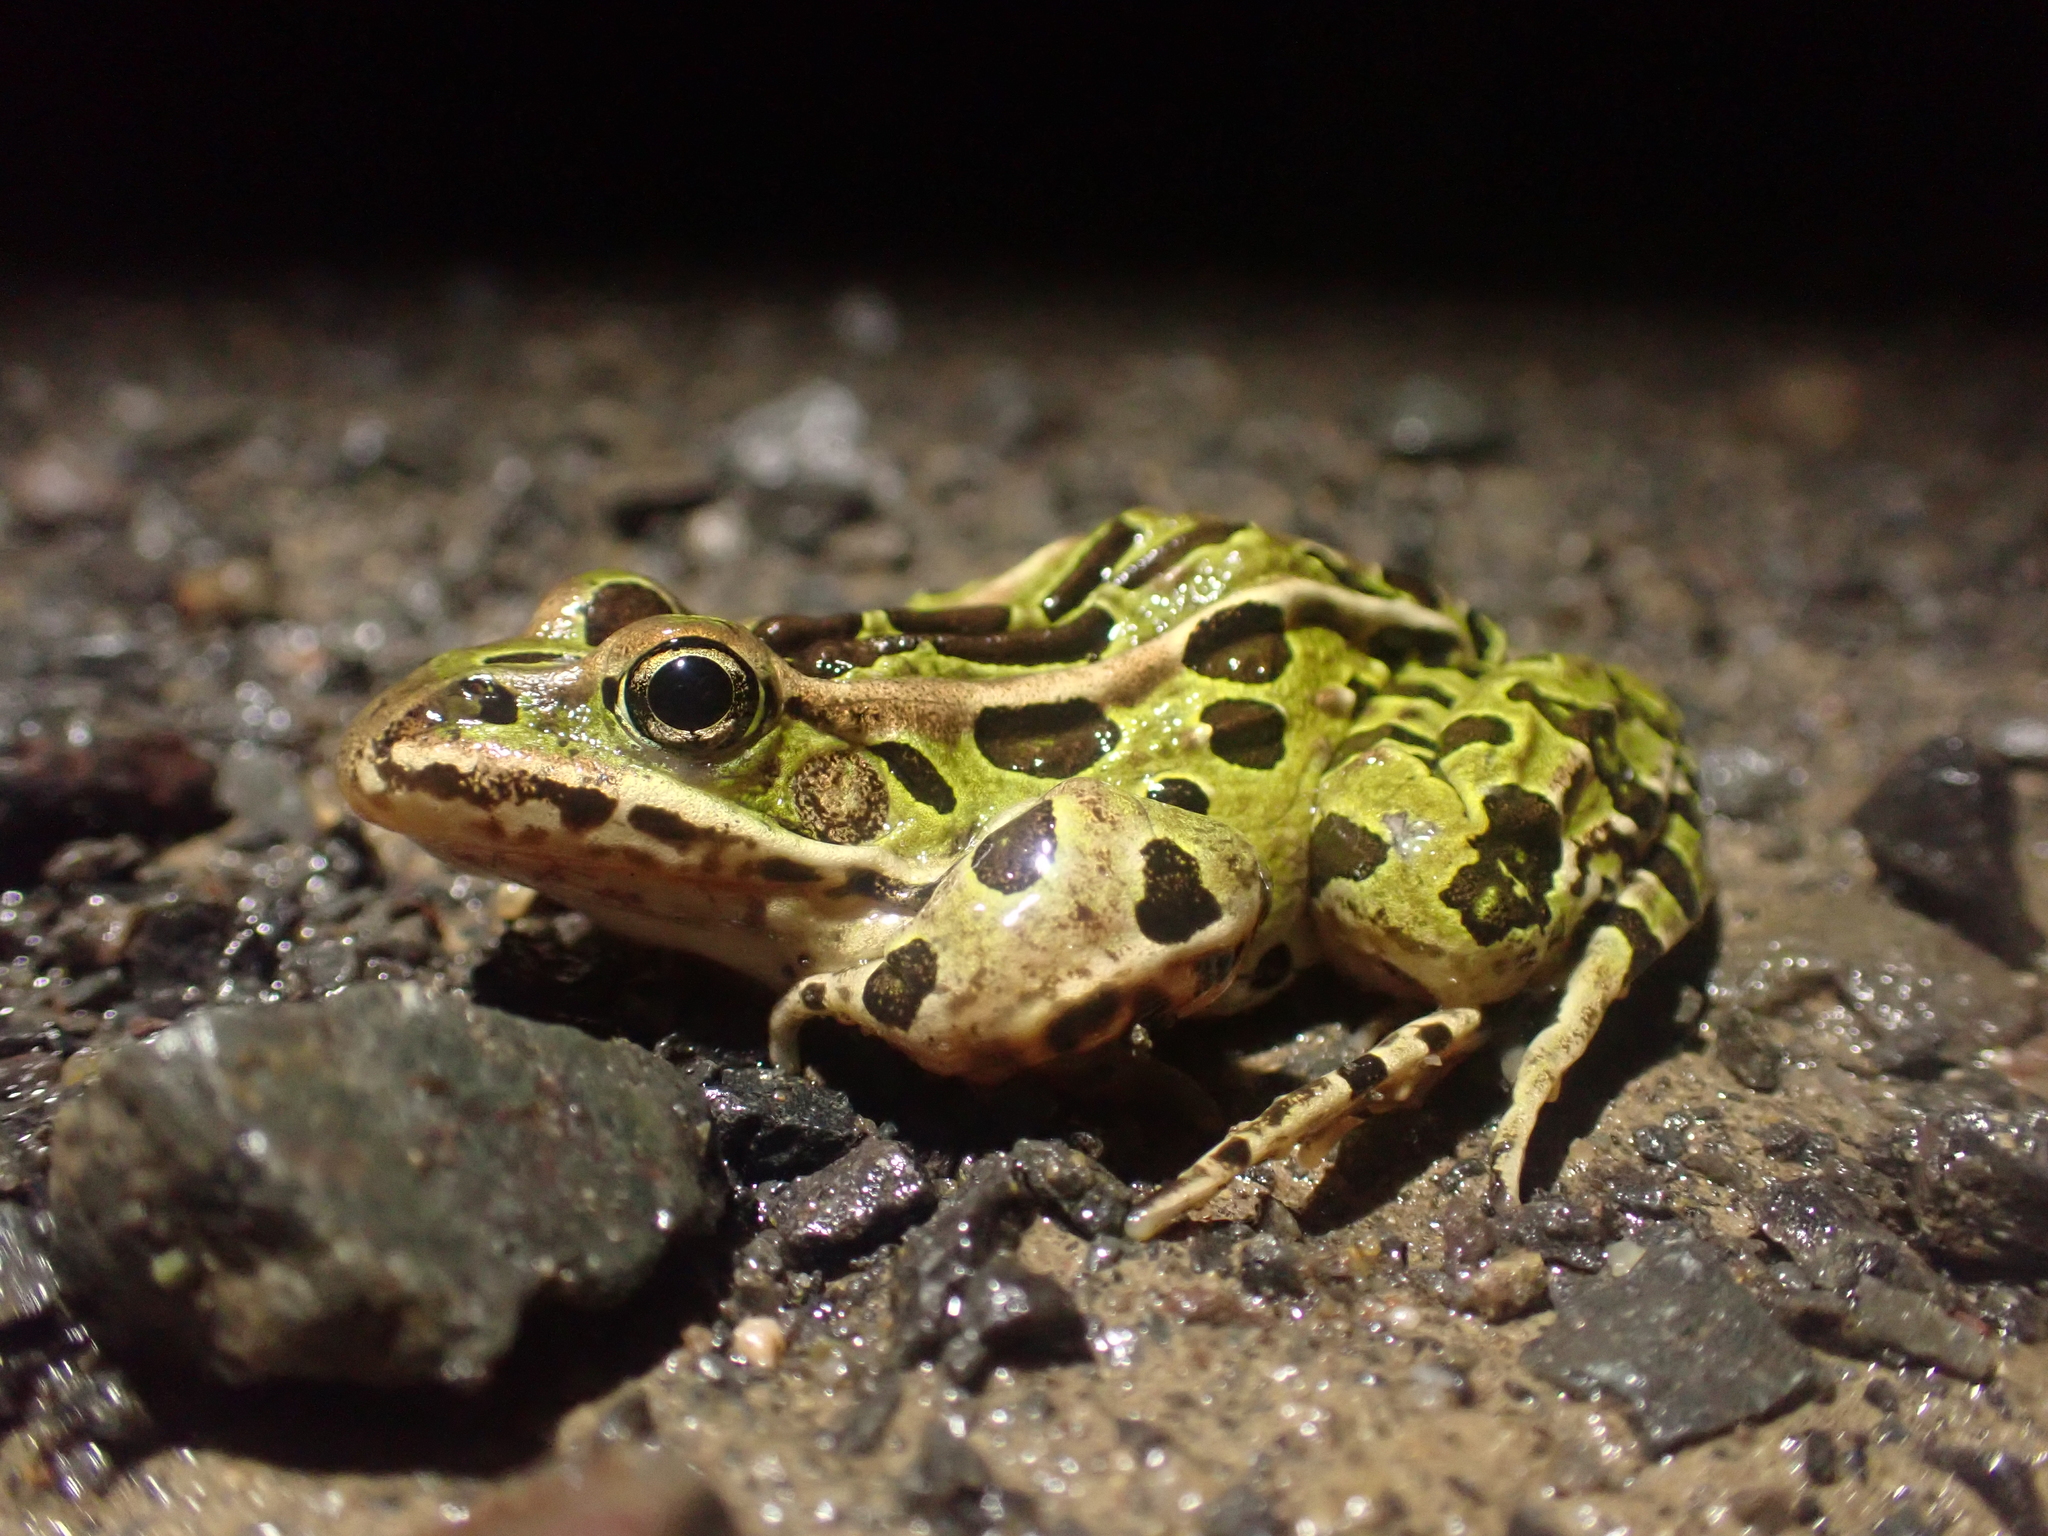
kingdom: Animalia
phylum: Chordata
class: Amphibia
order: Anura
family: Ranidae
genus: Lithobates
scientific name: Lithobates pipiens
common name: Northern leopard frog
